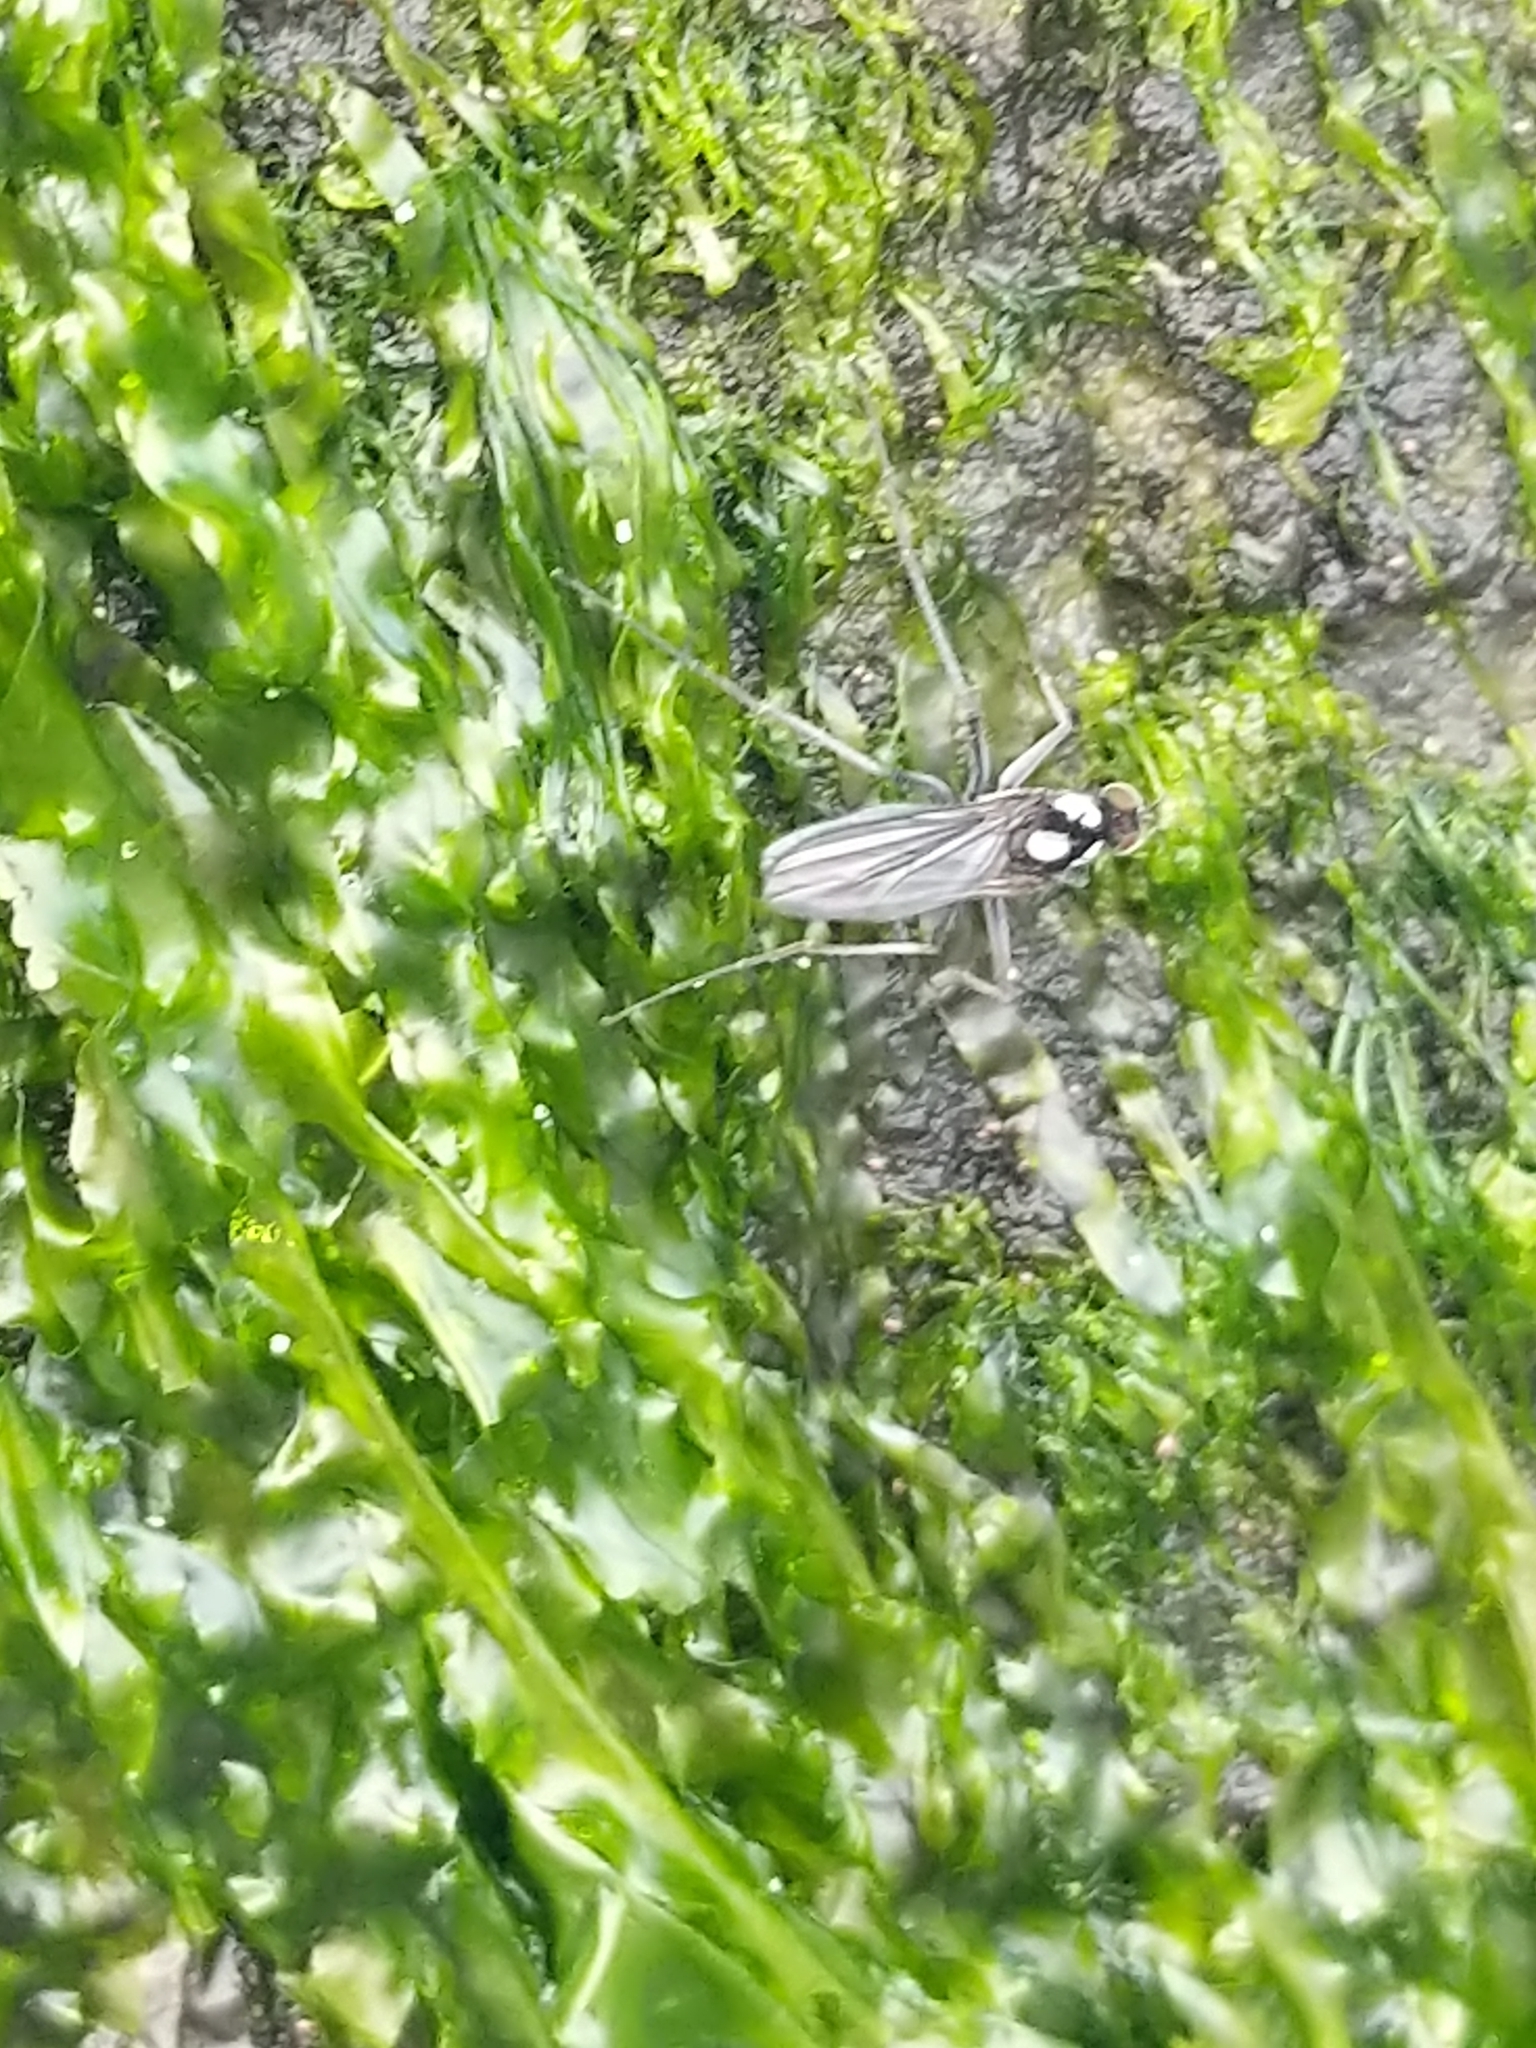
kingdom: Animalia
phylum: Arthropoda
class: Insecta
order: Diptera
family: Dolichopodidae
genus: Thambemyia
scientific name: Thambemyia borealis
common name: Fly
